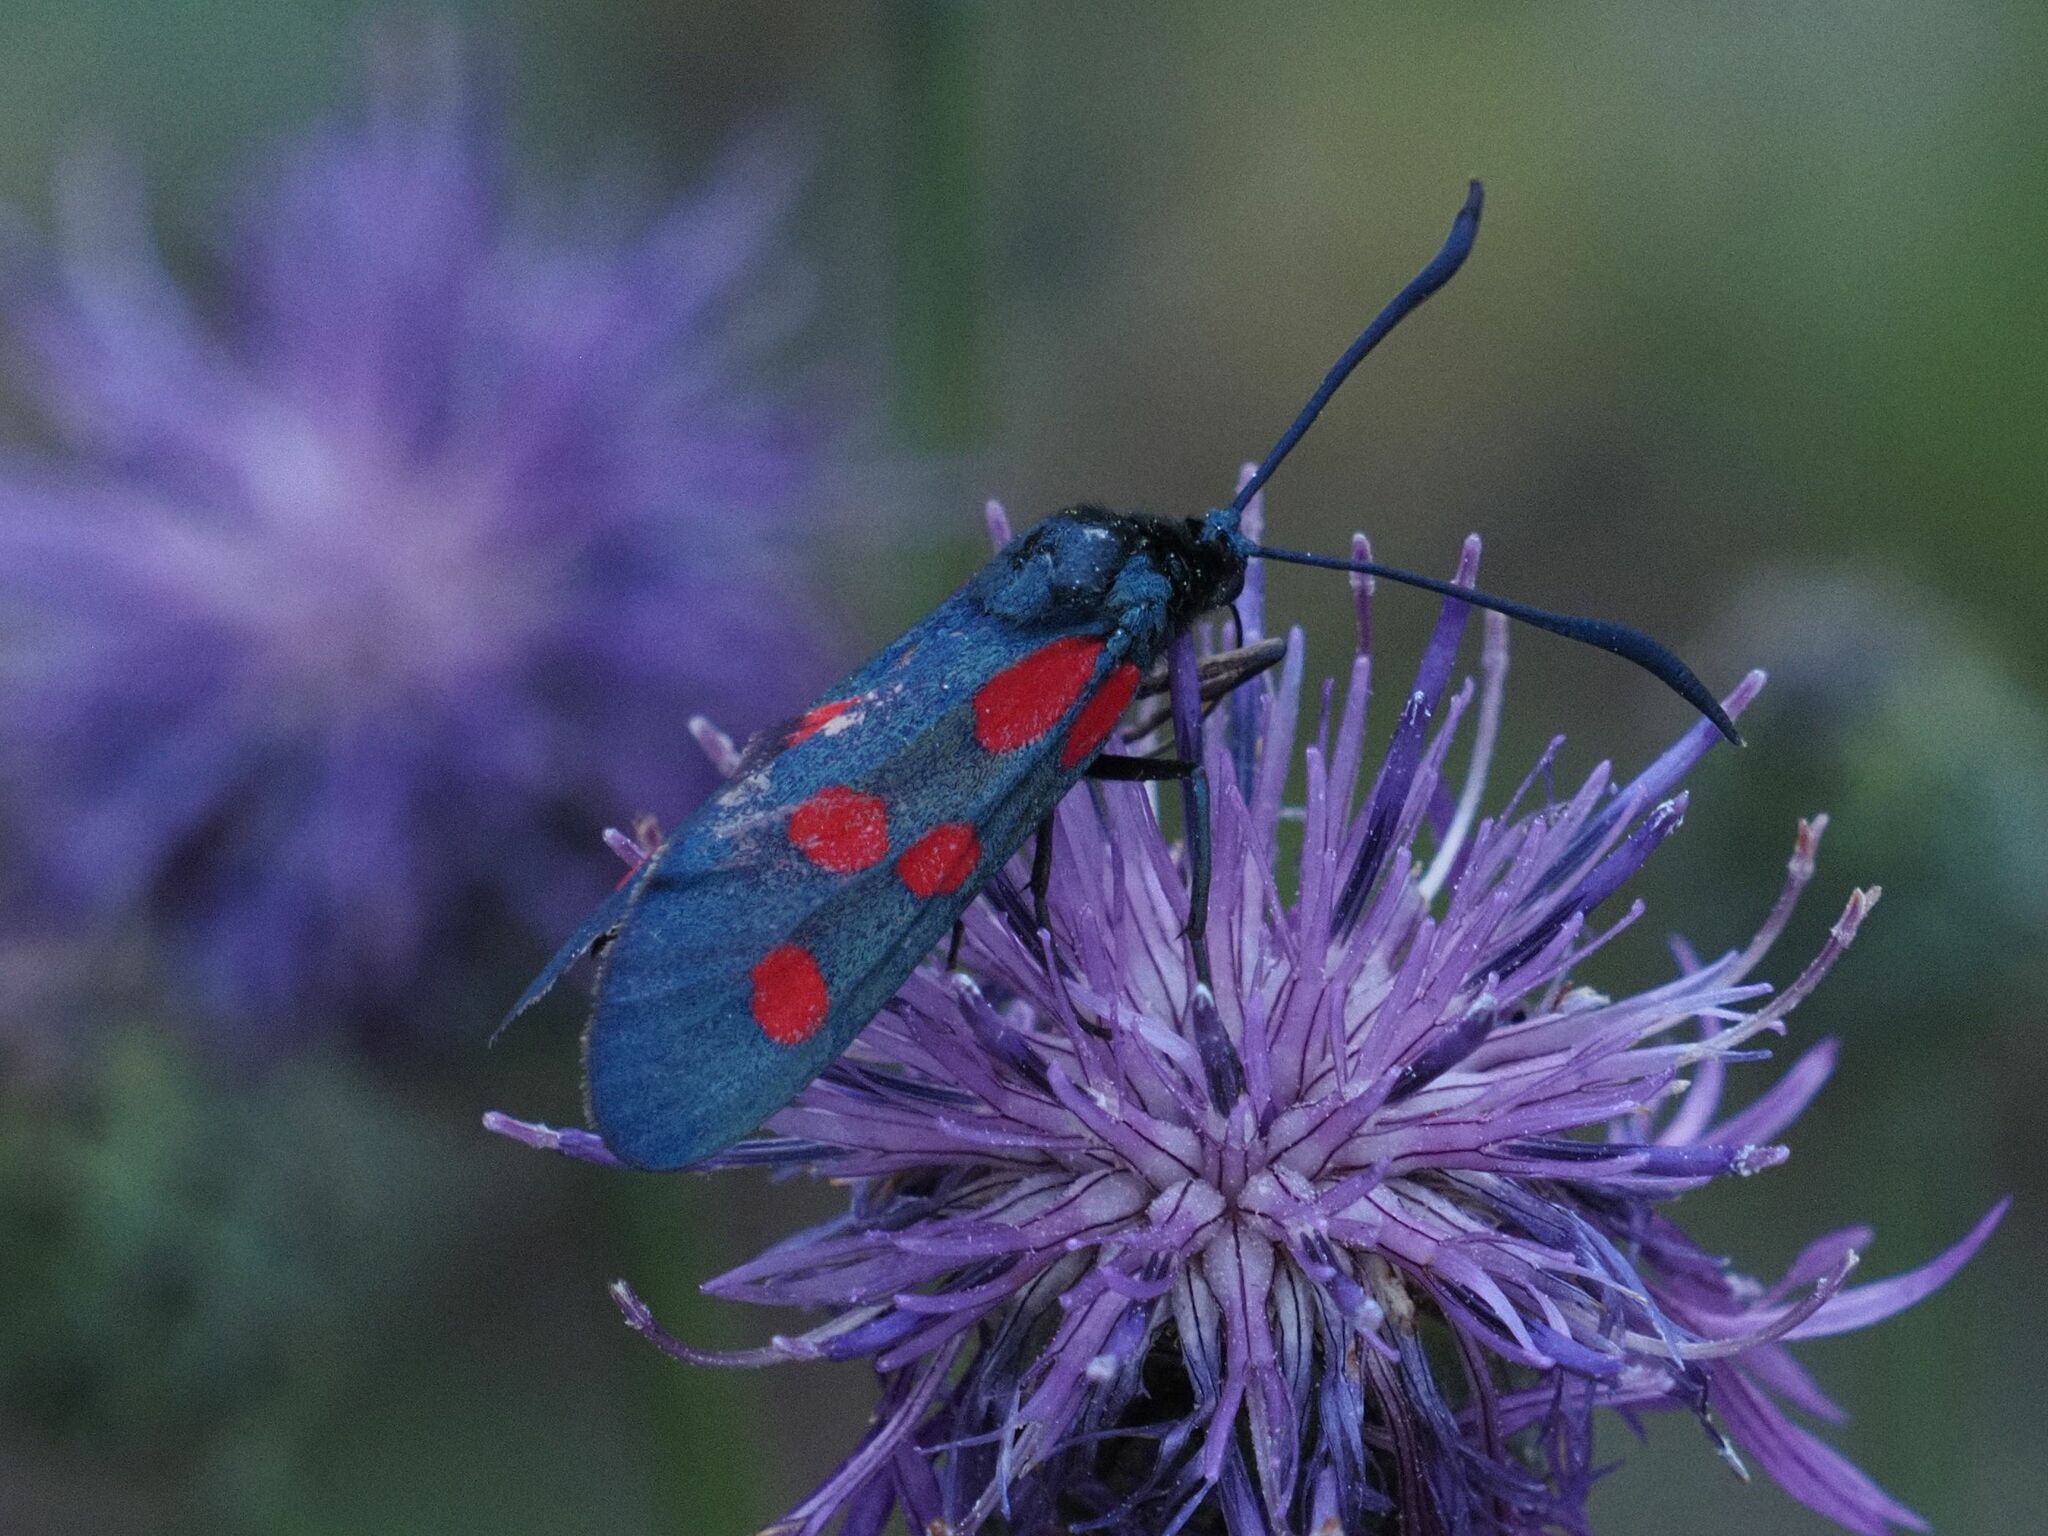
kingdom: Animalia
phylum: Arthropoda
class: Insecta
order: Lepidoptera
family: Zygaenidae
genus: Zygaena
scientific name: Zygaena angelicae
